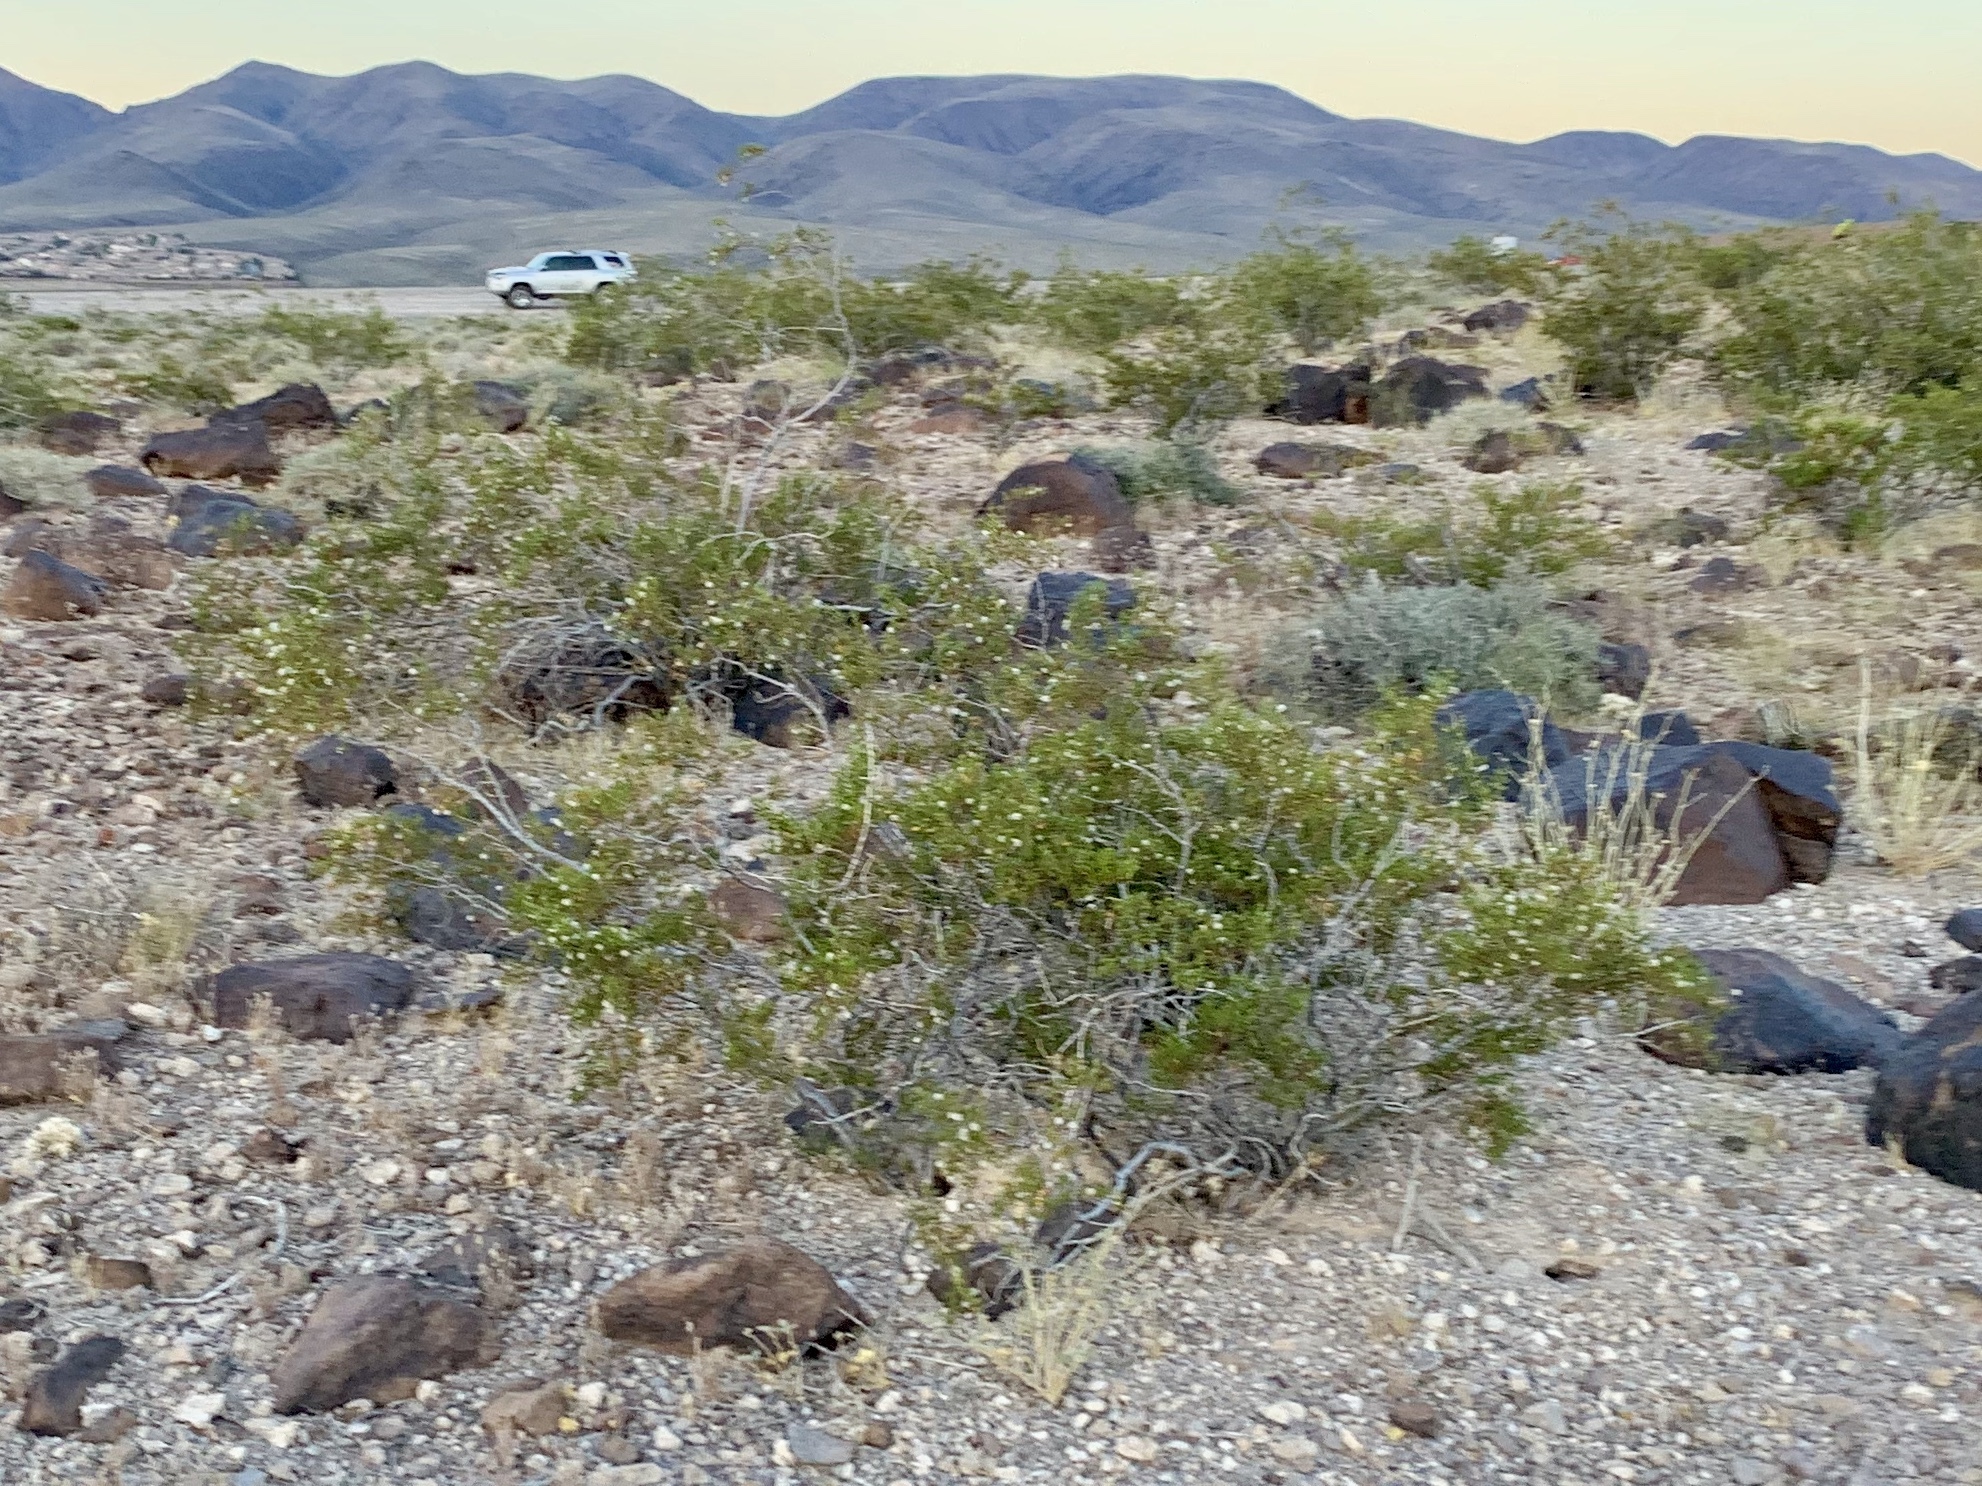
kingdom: Plantae
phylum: Tracheophyta
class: Magnoliopsida
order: Zygophyllales
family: Zygophyllaceae
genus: Larrea
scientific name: Larrea tridentata
